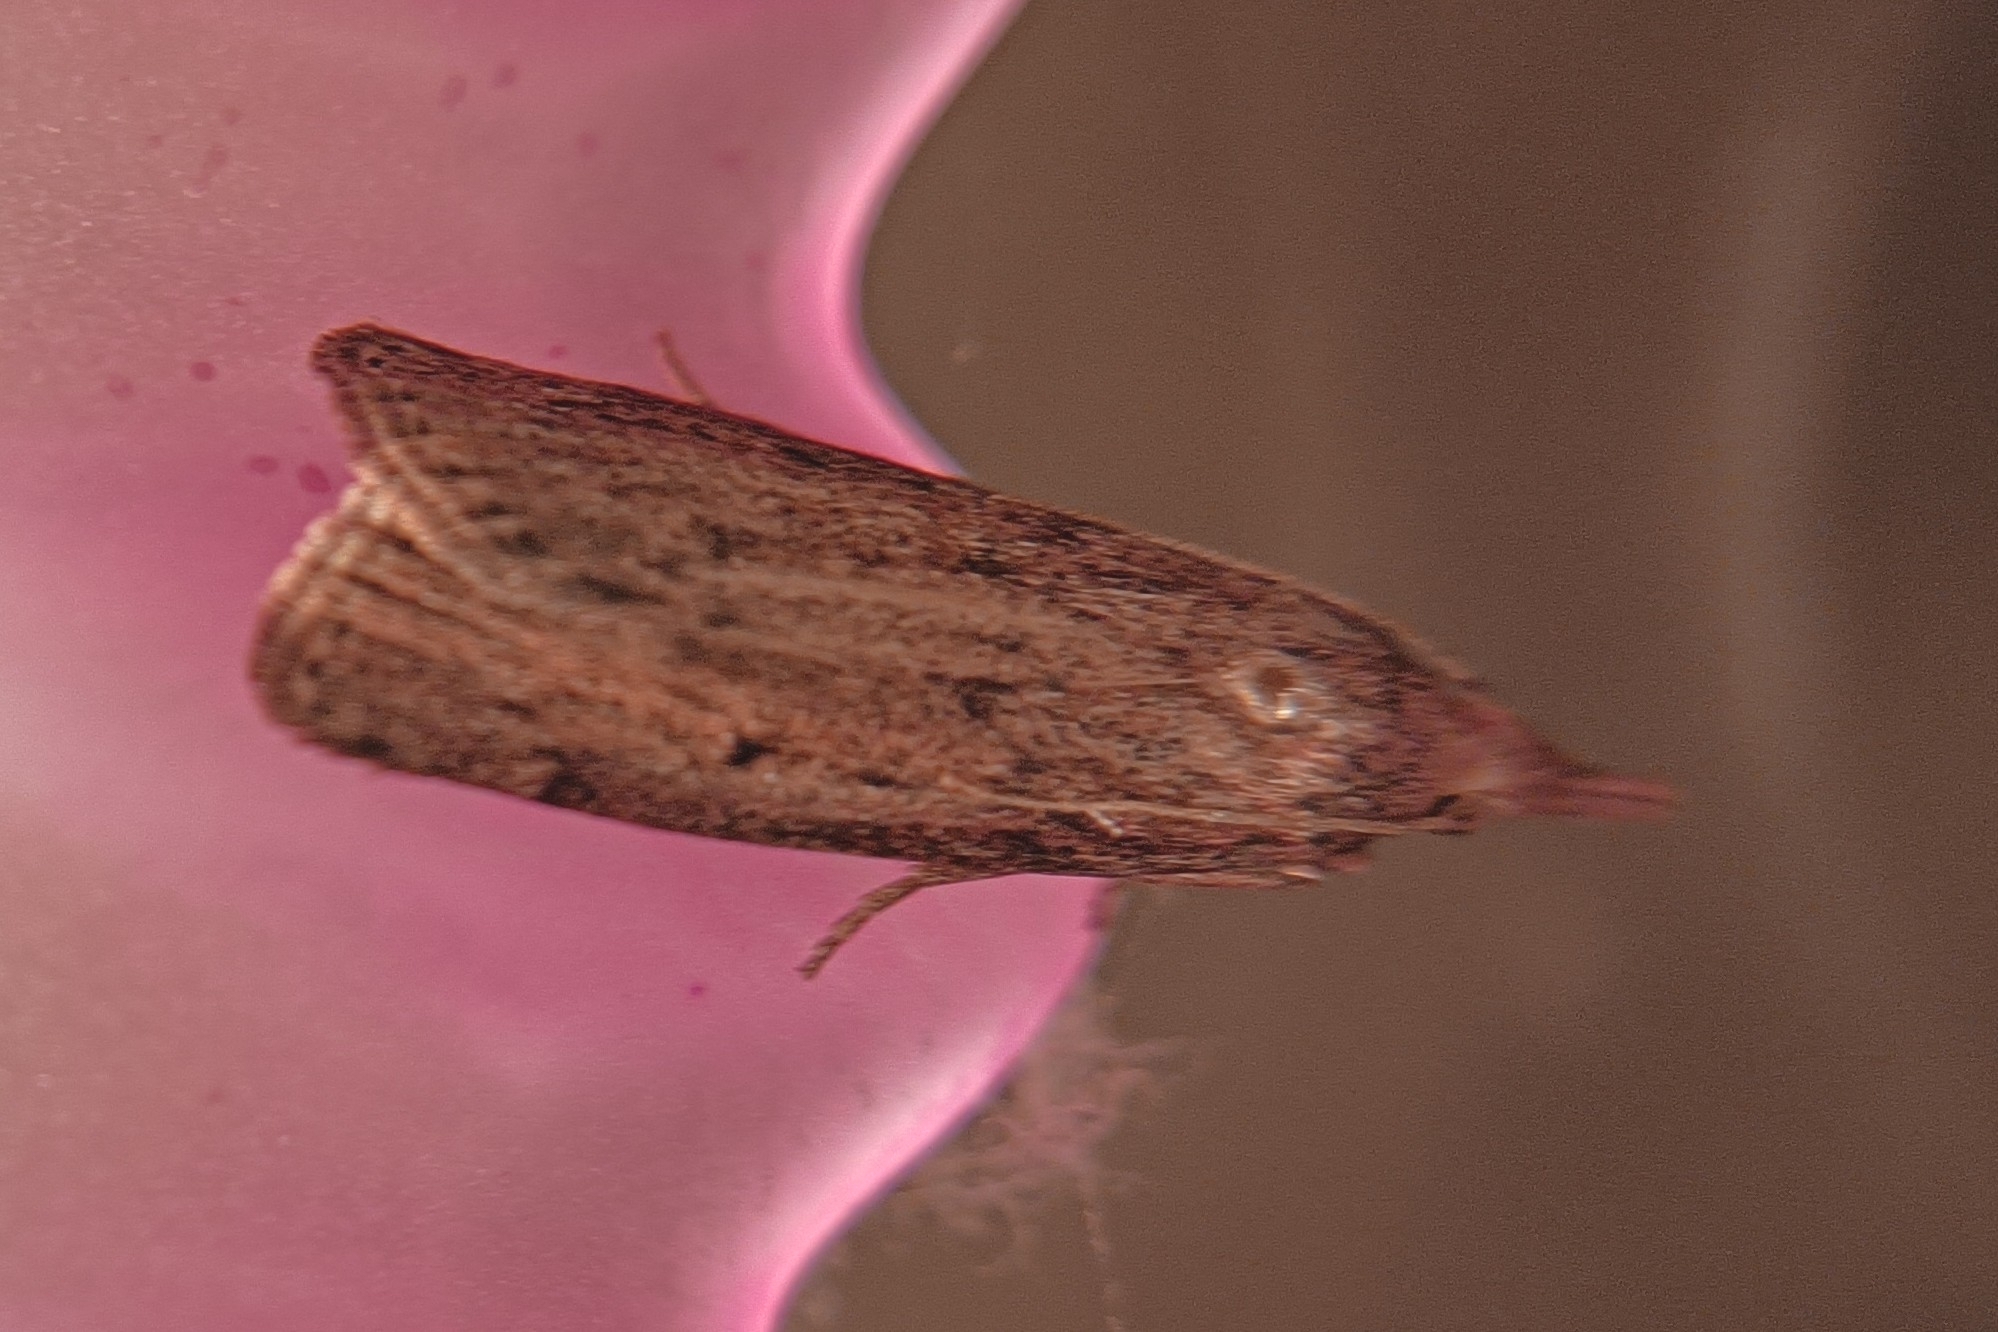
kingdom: Animalia
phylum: Arthropoda
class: Insecta
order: Lepidoptera
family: Pyralidae
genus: Aphomia
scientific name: Aphomia sociella
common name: Bee moth
